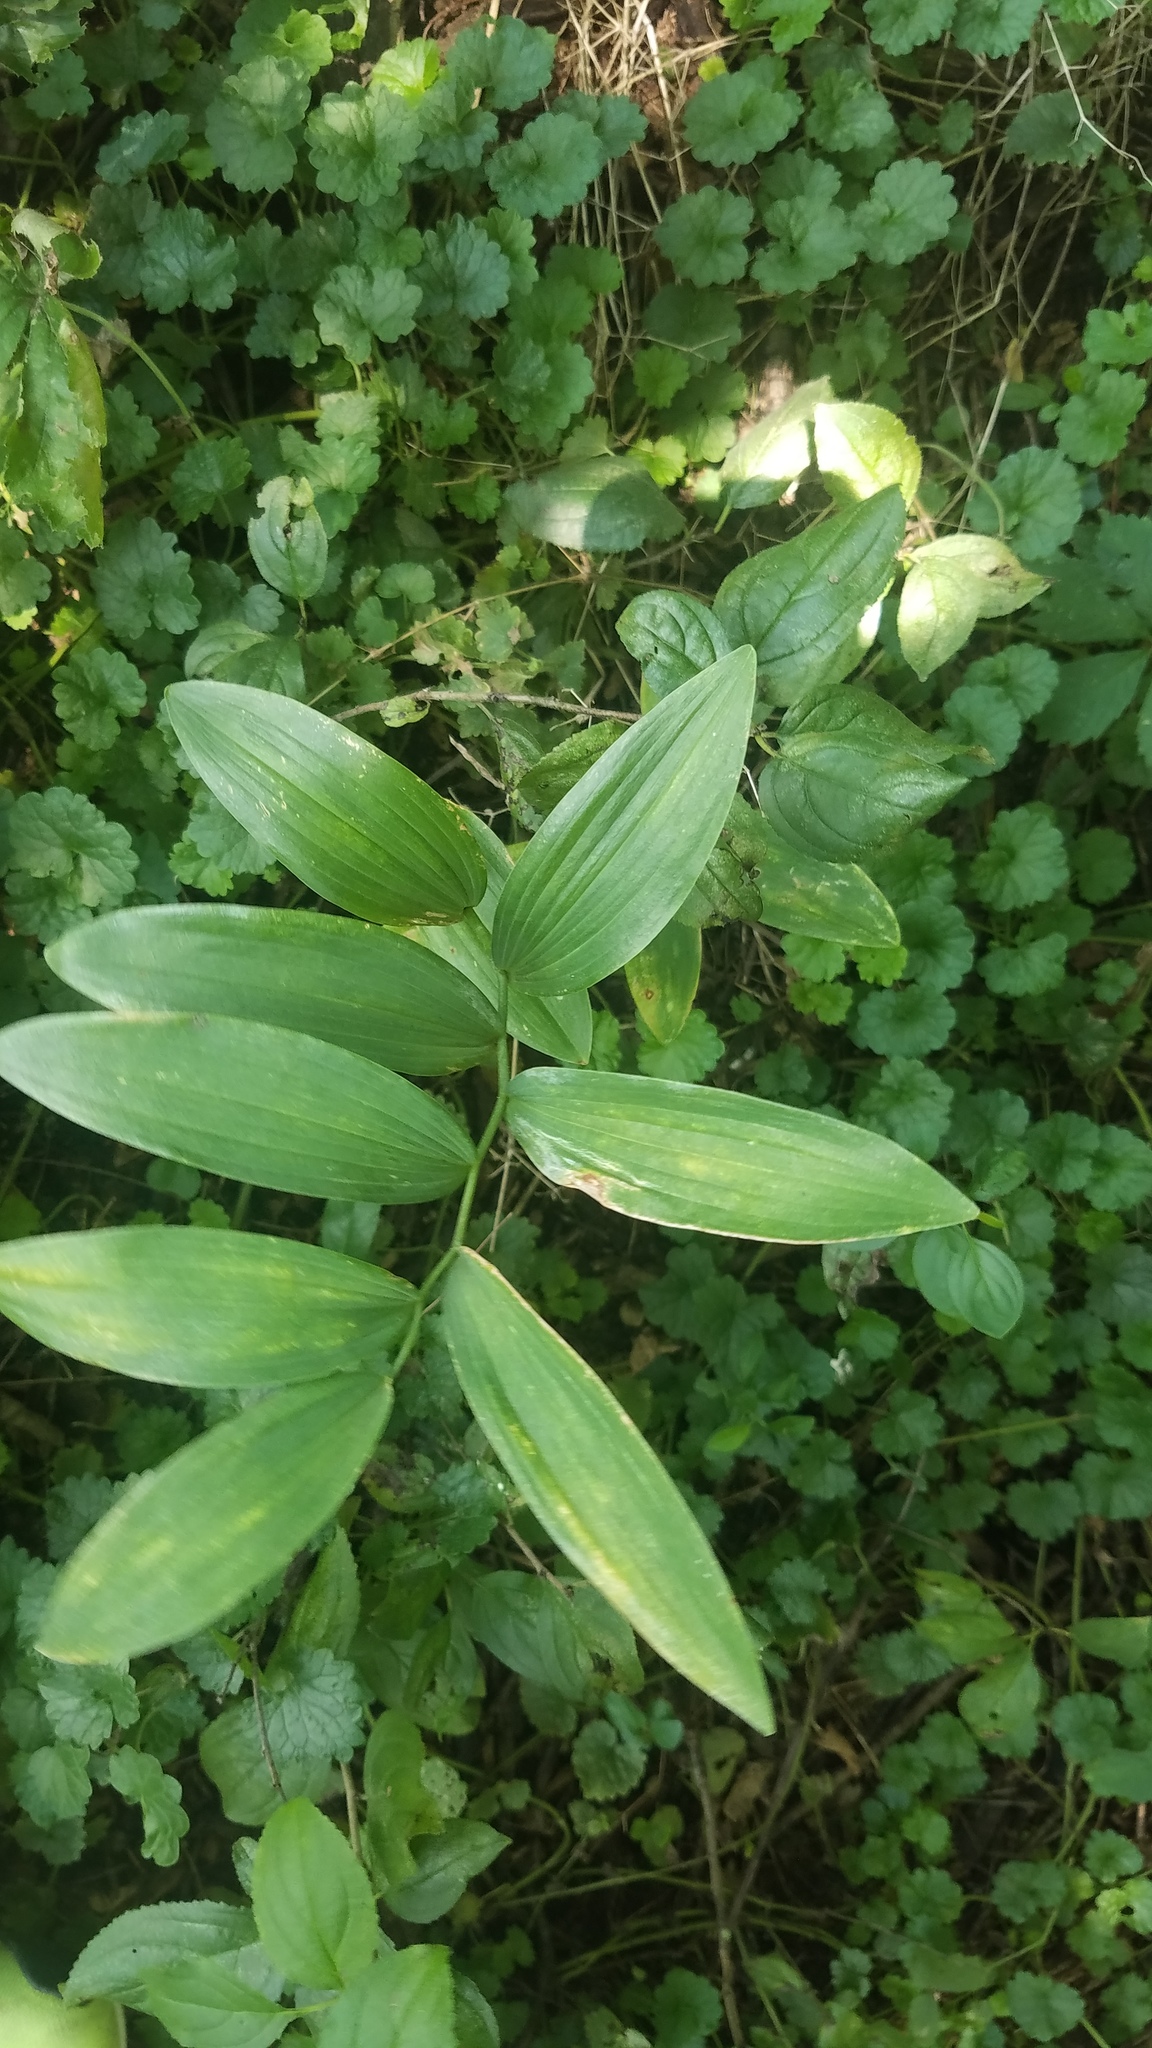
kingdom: Plantae
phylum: Tracheophyta
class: Liliopsida
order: Asparagales
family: Asparagaceae
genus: Polygonatum
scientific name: Polygonatum biflorum
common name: American solomon's-seal
